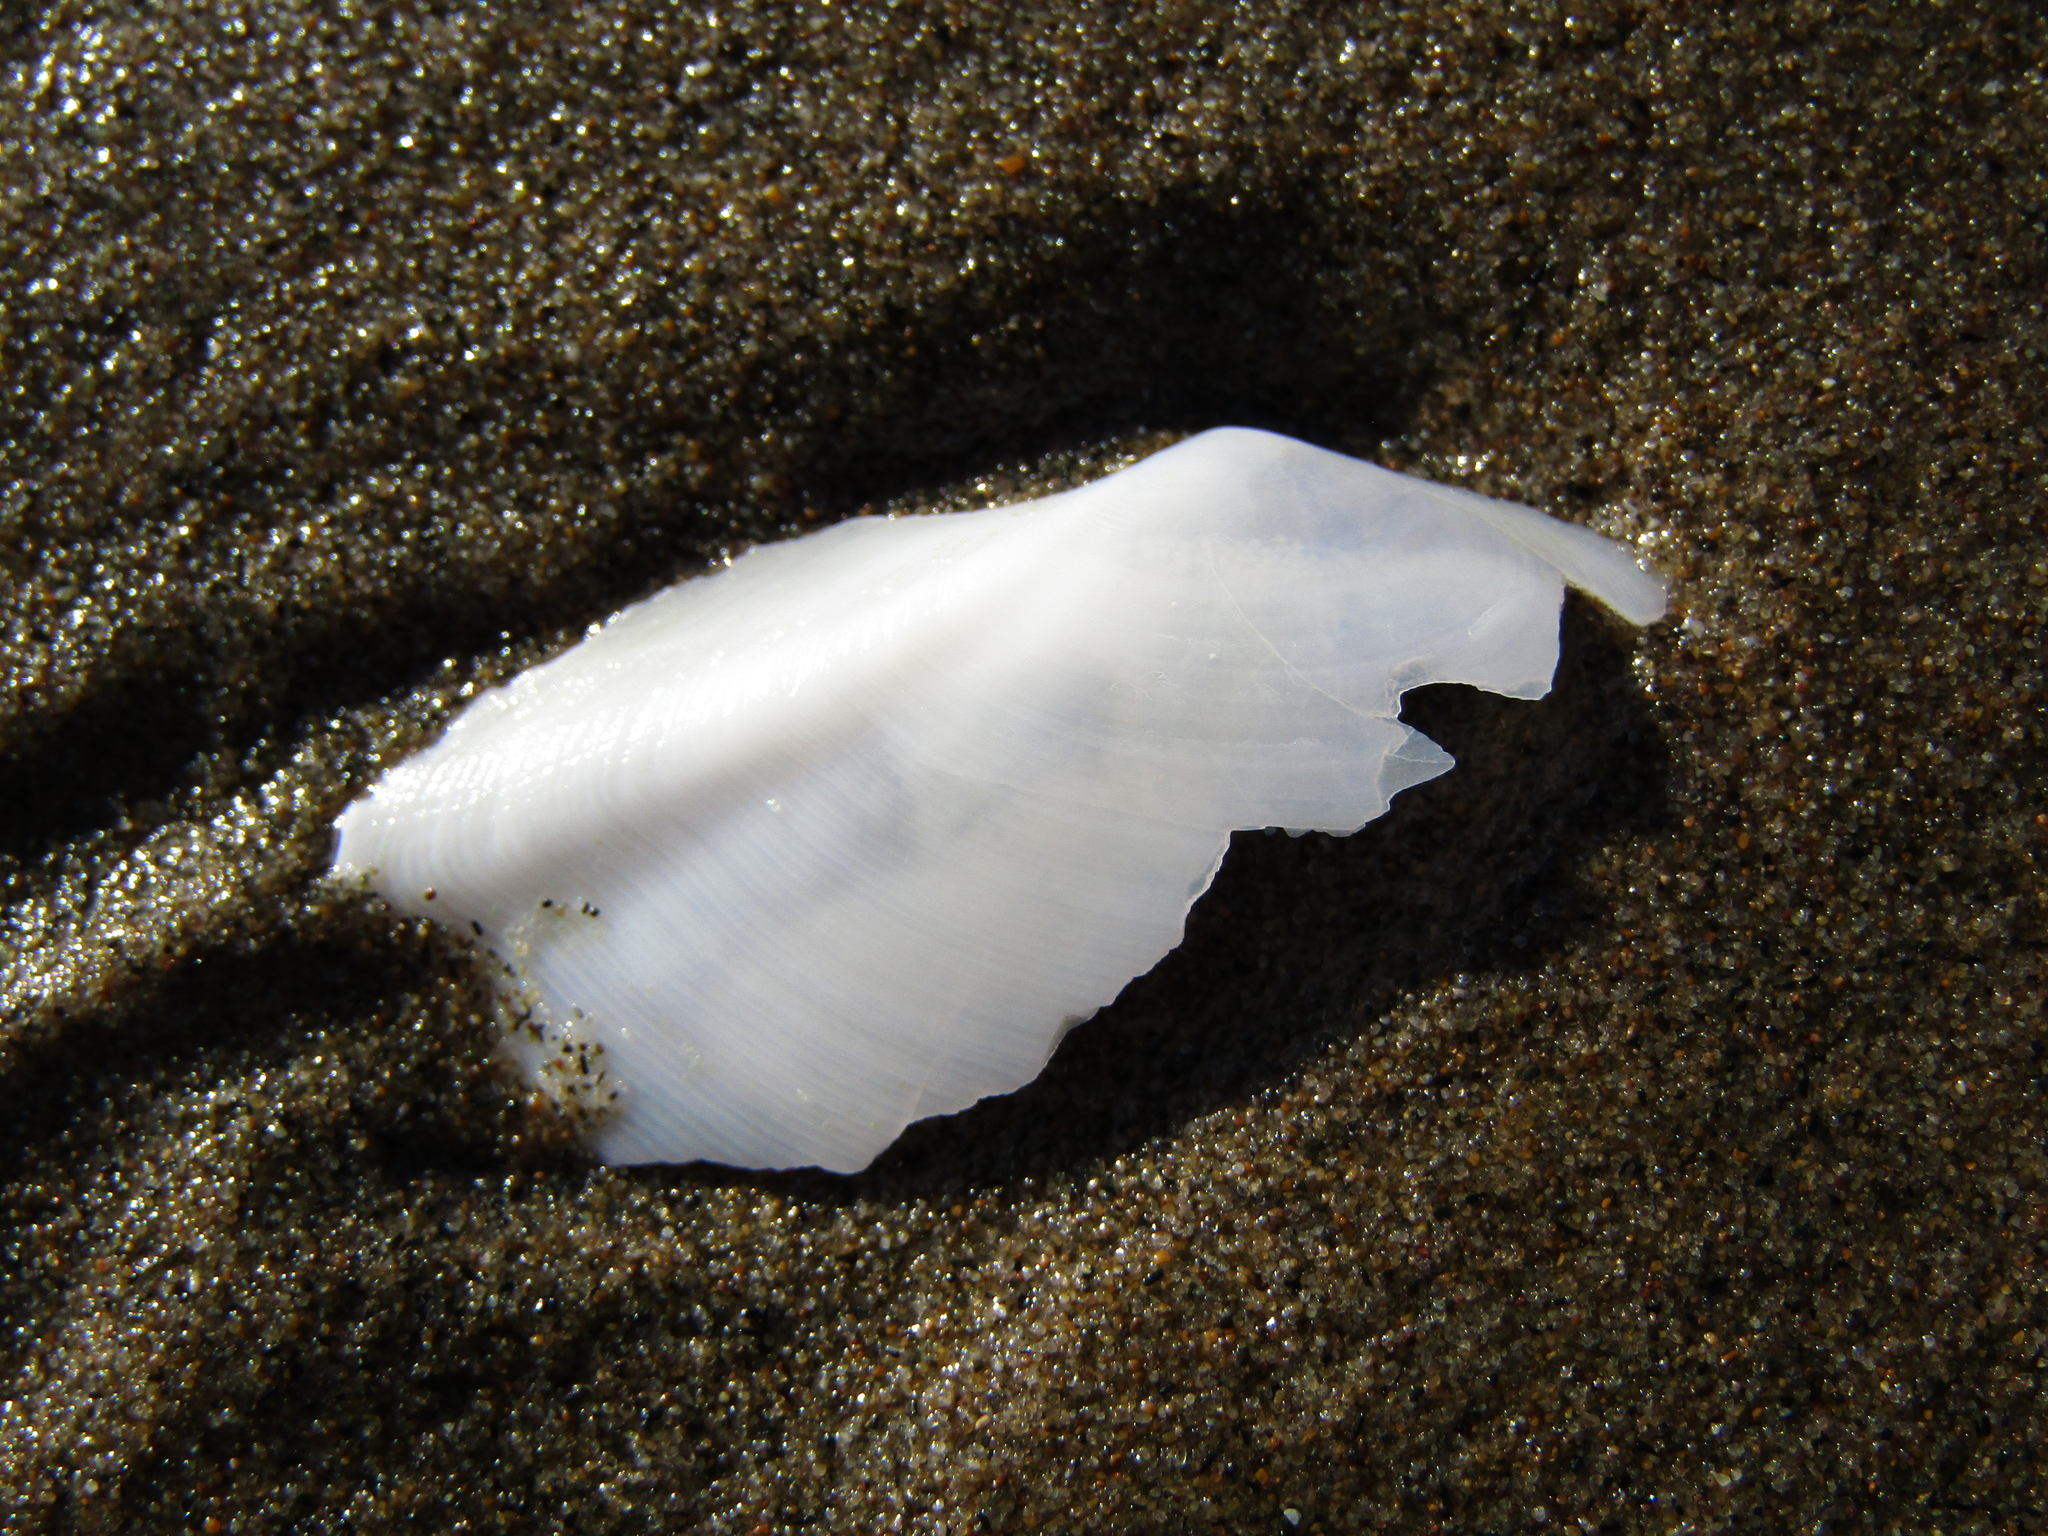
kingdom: Animalia
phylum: Mollusca
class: Bivalvia
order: Cardiida
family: Tellinidae
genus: Ardeamya
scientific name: Ardeamya spenceri
